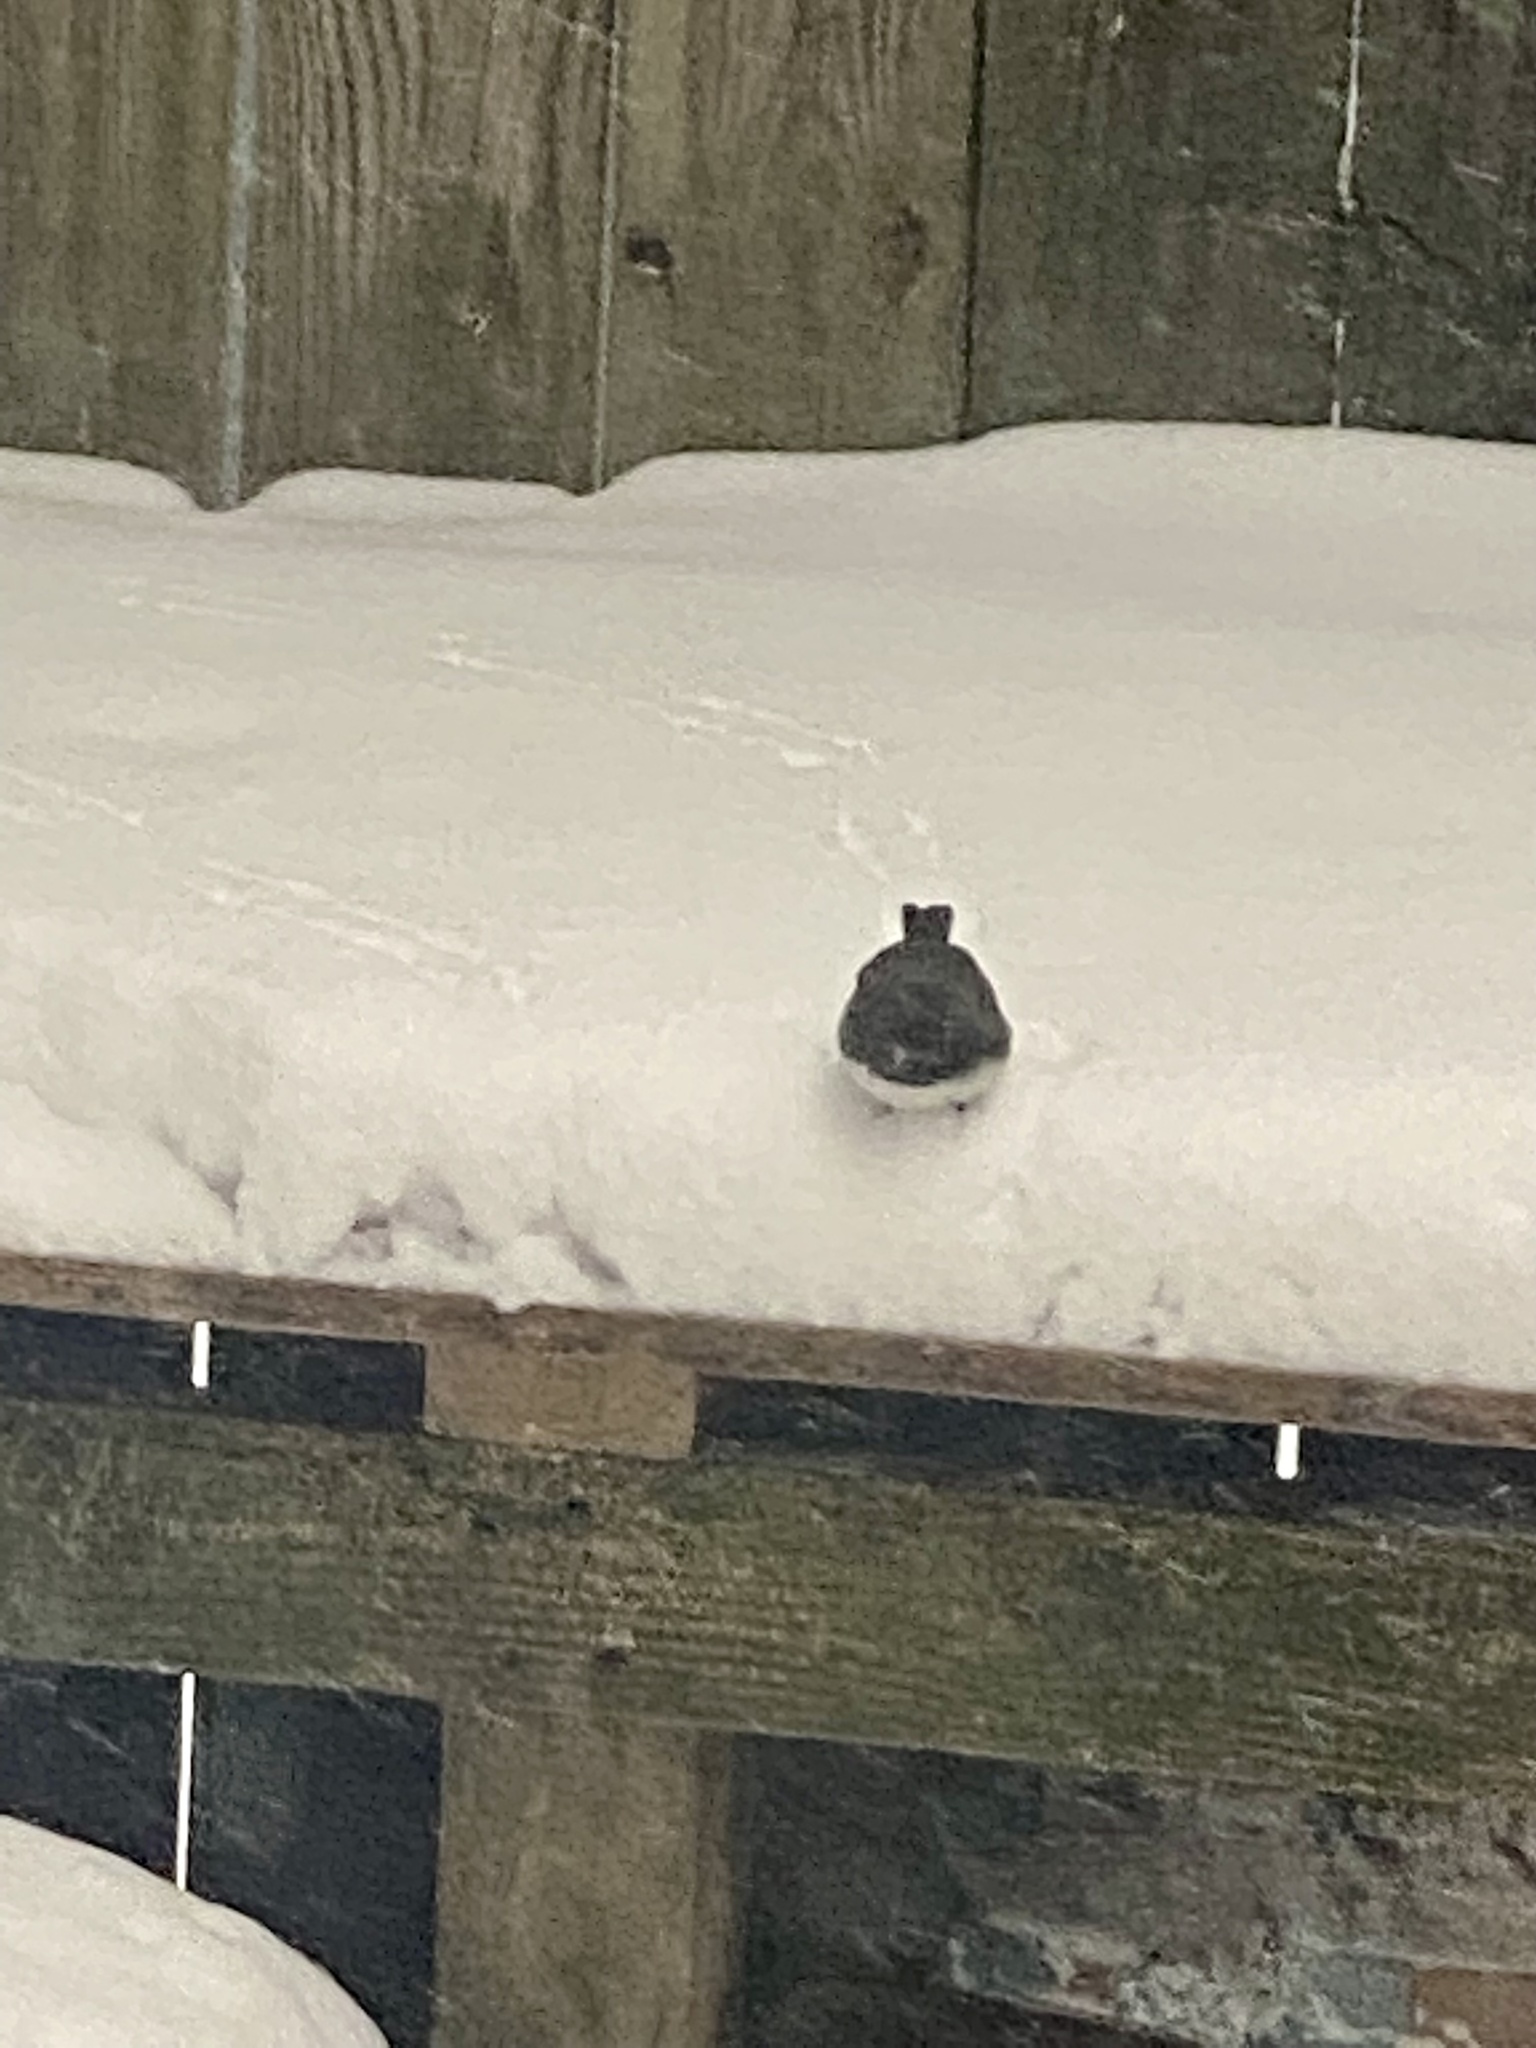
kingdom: Animalia
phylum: Chordata
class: Aves
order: Passeriformes
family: Passerellidae
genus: Junco
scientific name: Junco hyemalis
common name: Dark-eyed junco
